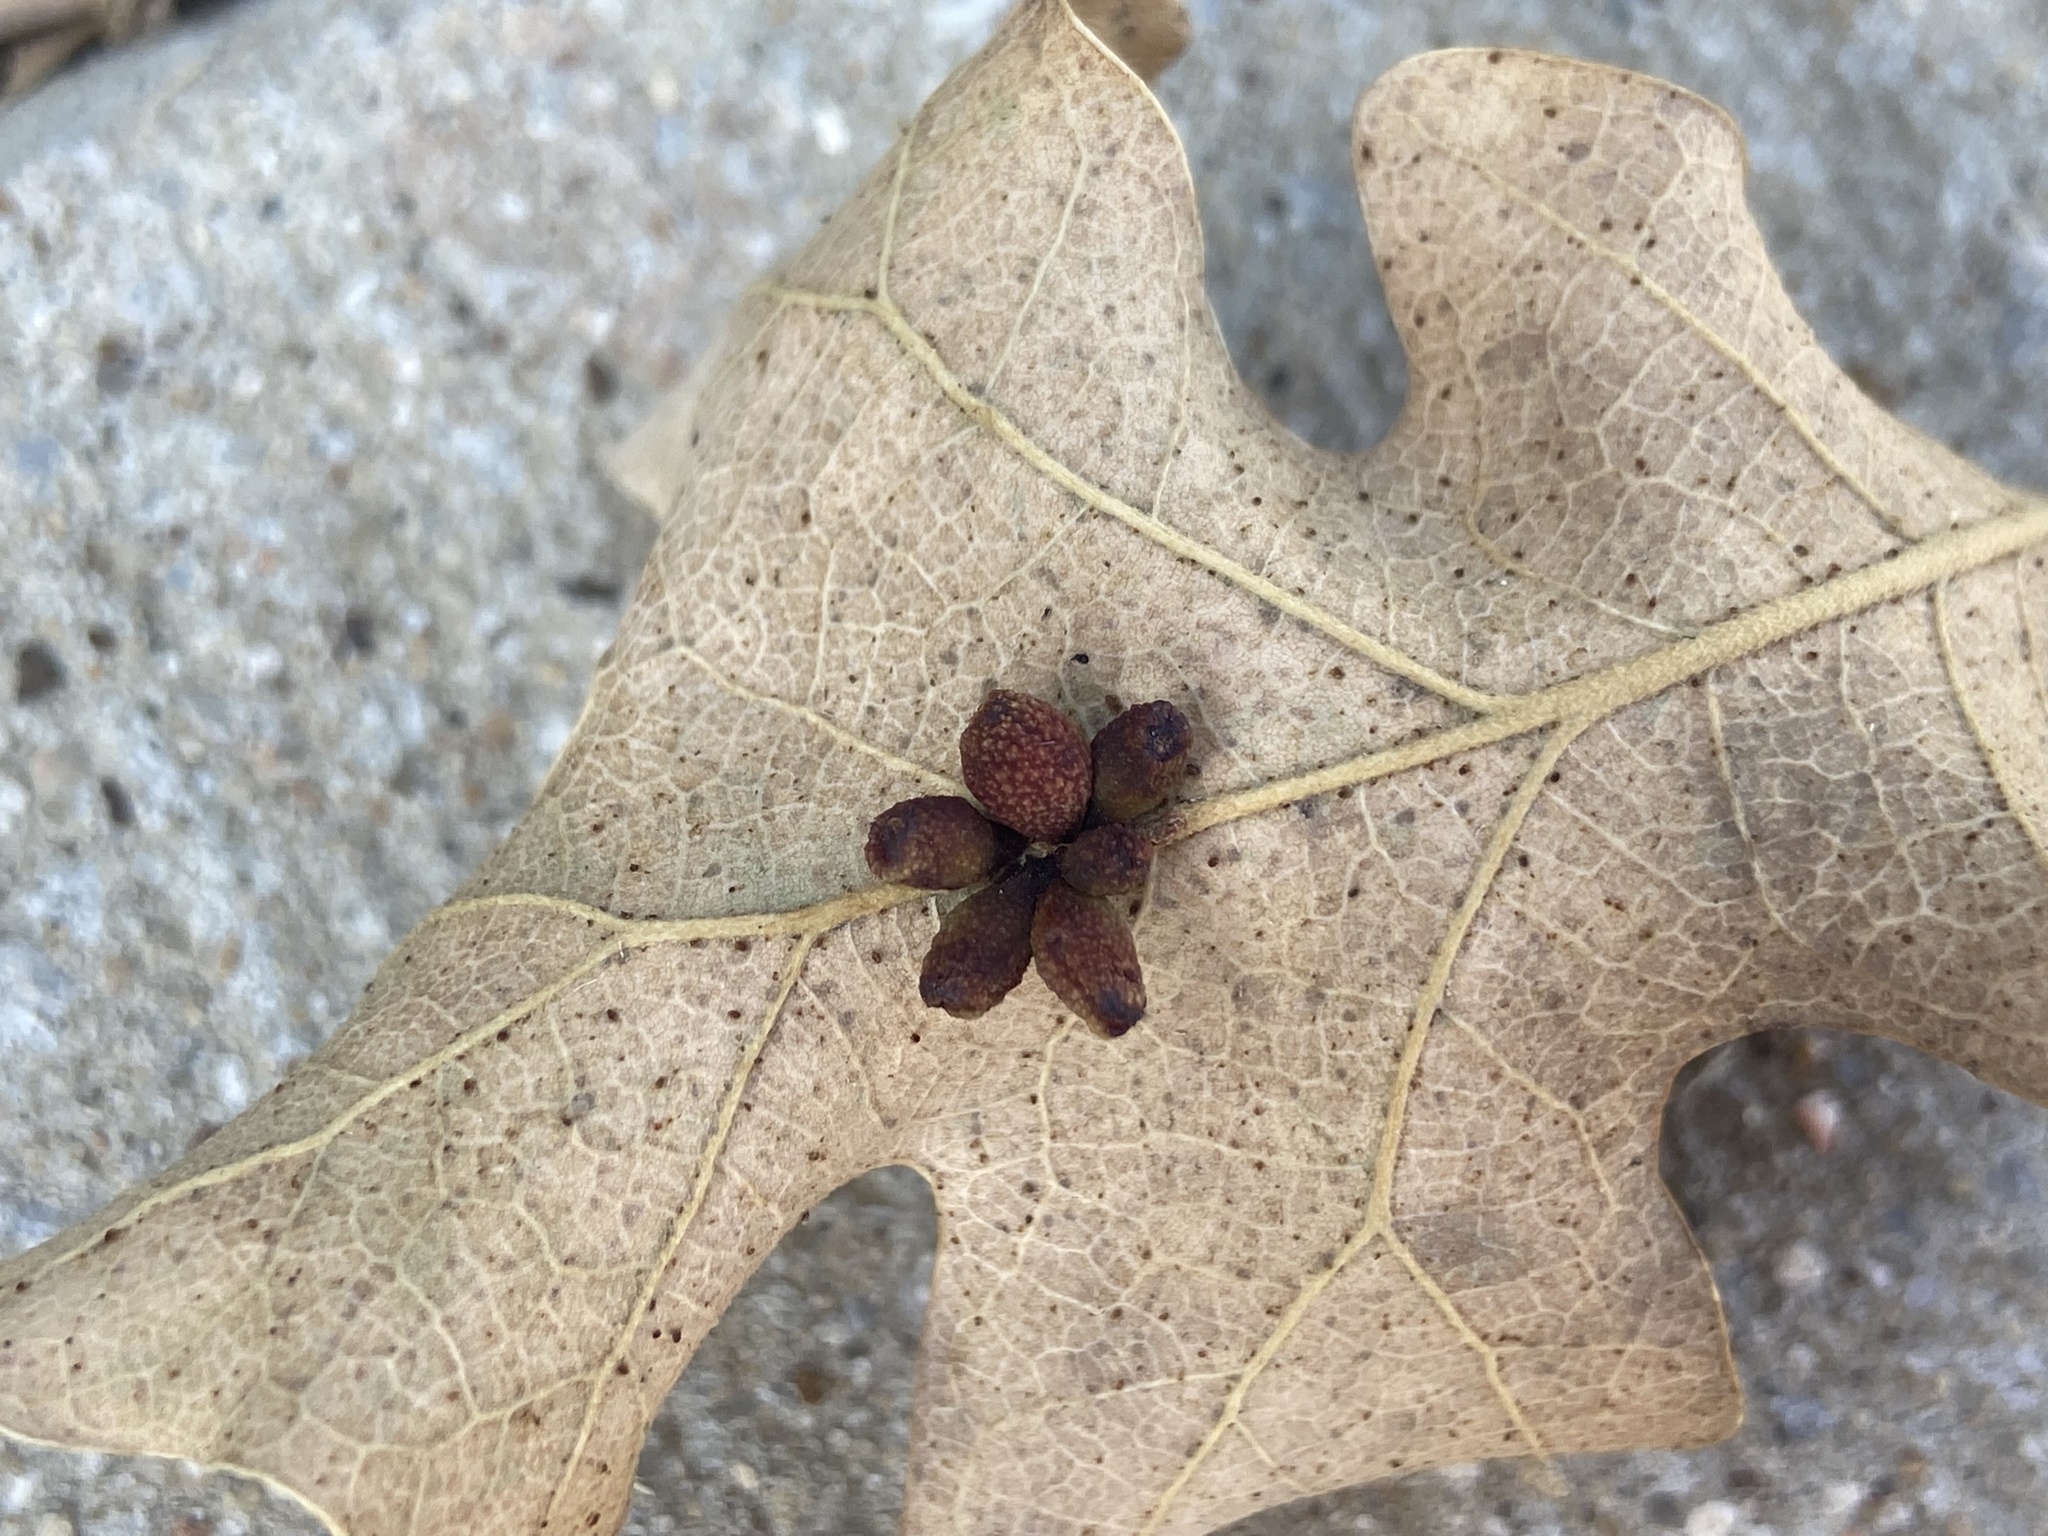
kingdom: Animalia
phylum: Arthropoda
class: Insecta
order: Hymenoptera
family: Cynipidae
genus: Andricus
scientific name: Andricus lustrans
